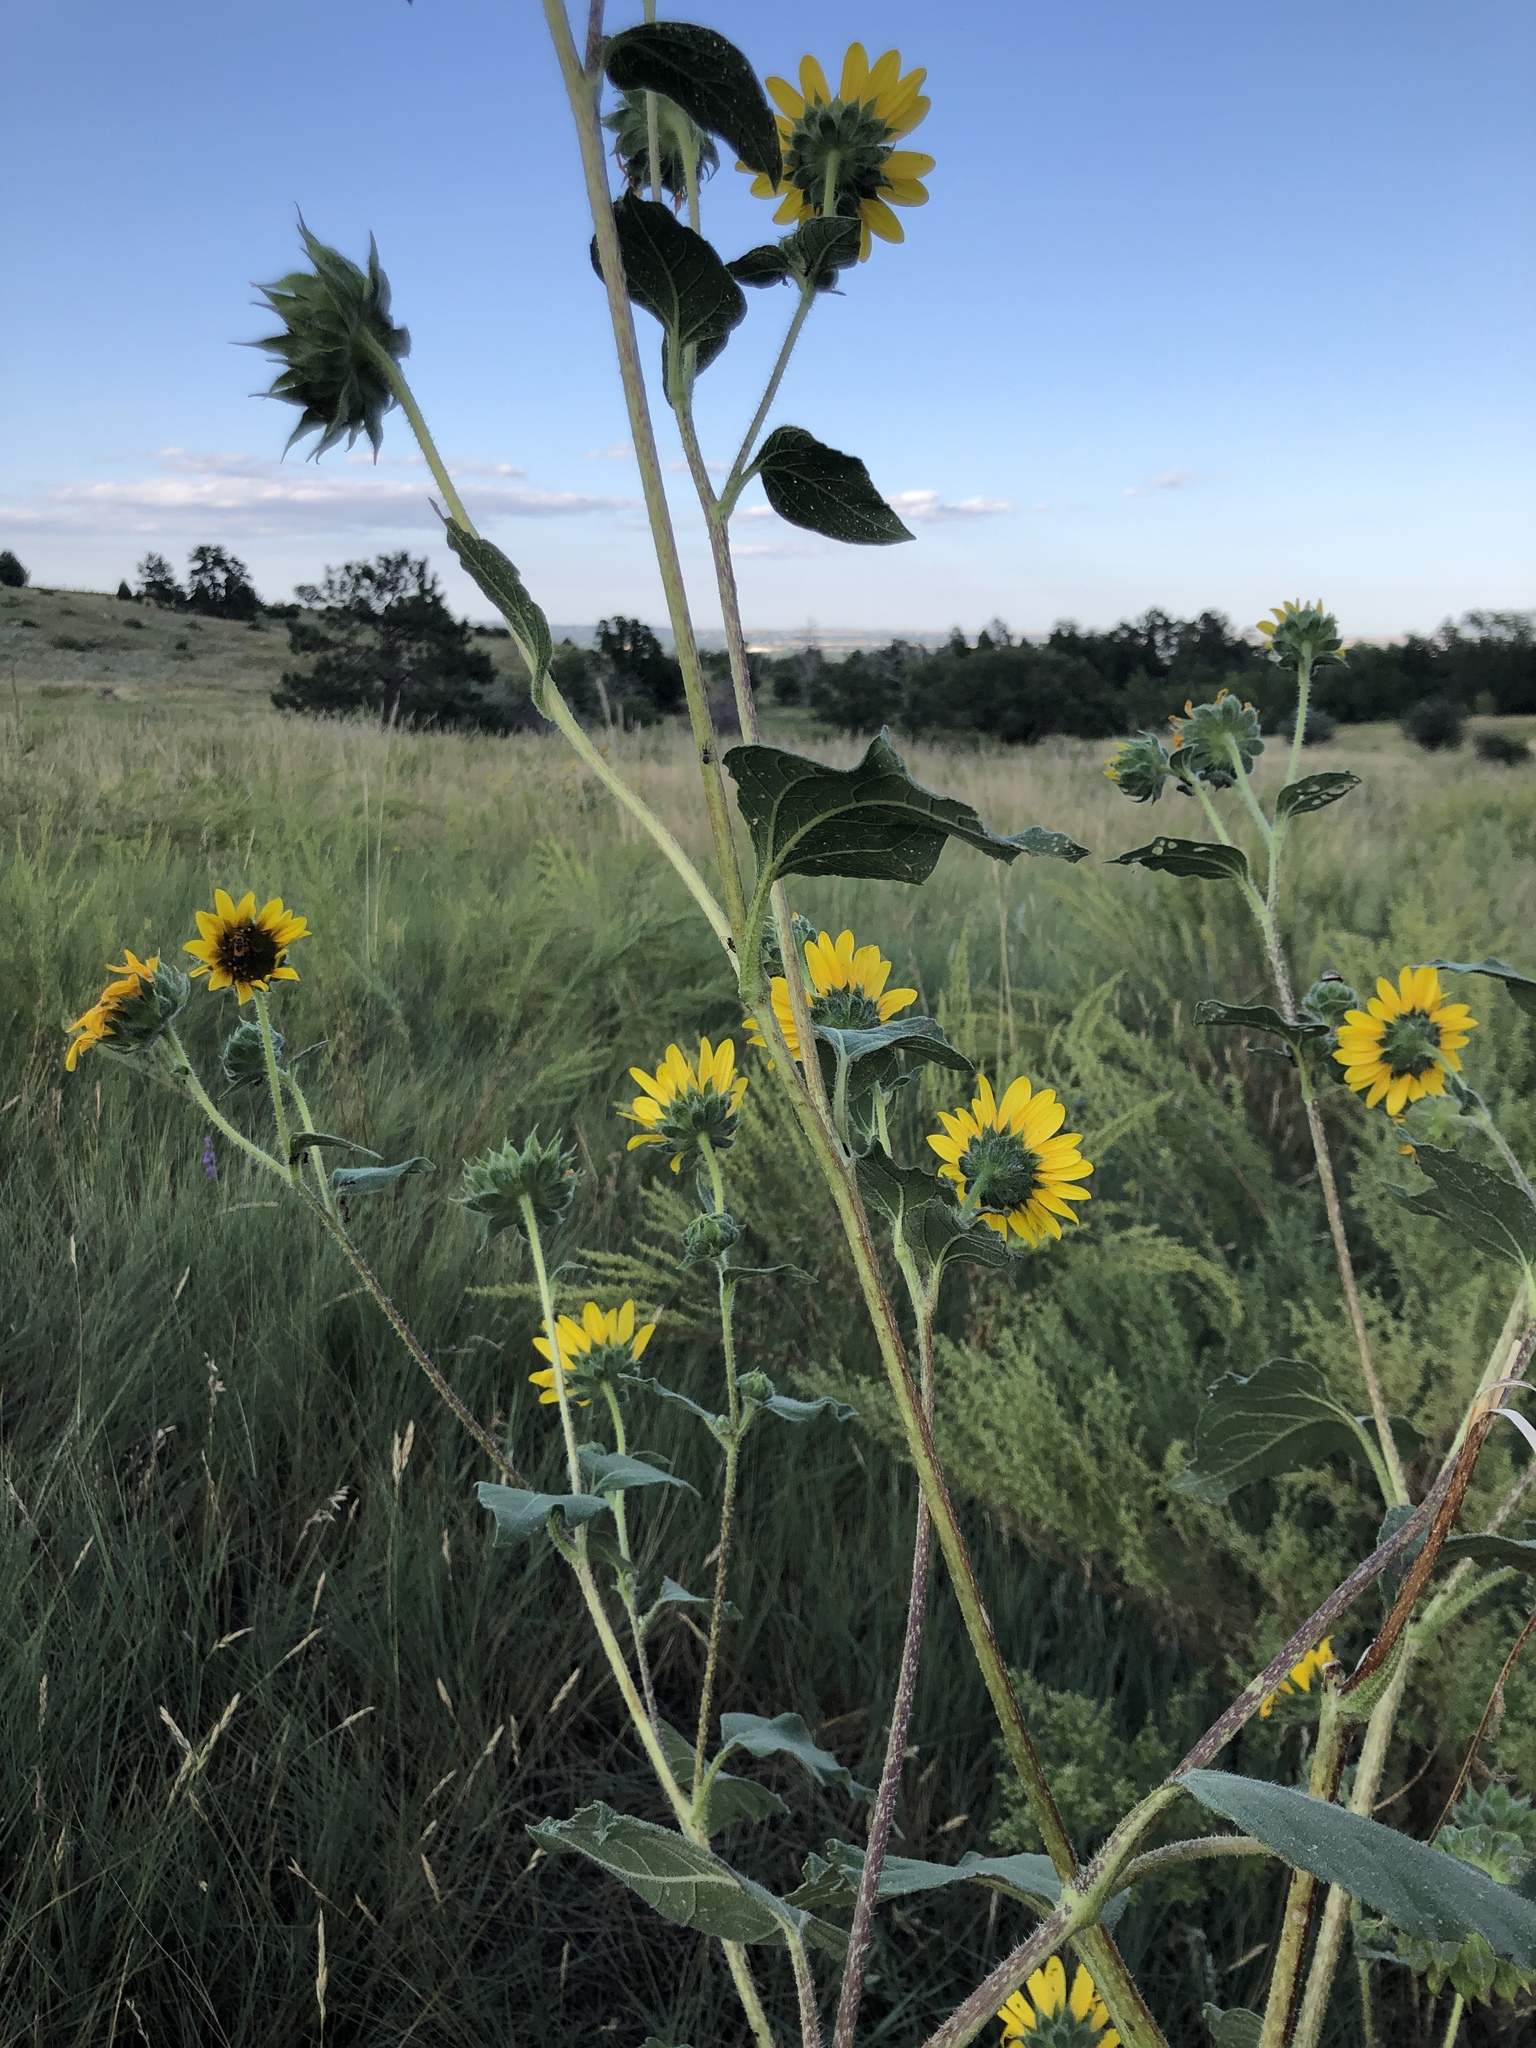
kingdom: Plantae
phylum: Tracheophyta
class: Magnoliopsida
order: Asterales
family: Asteraceae
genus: Helianthus
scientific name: Helianthus petiolaris
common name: Lesser sunflower
